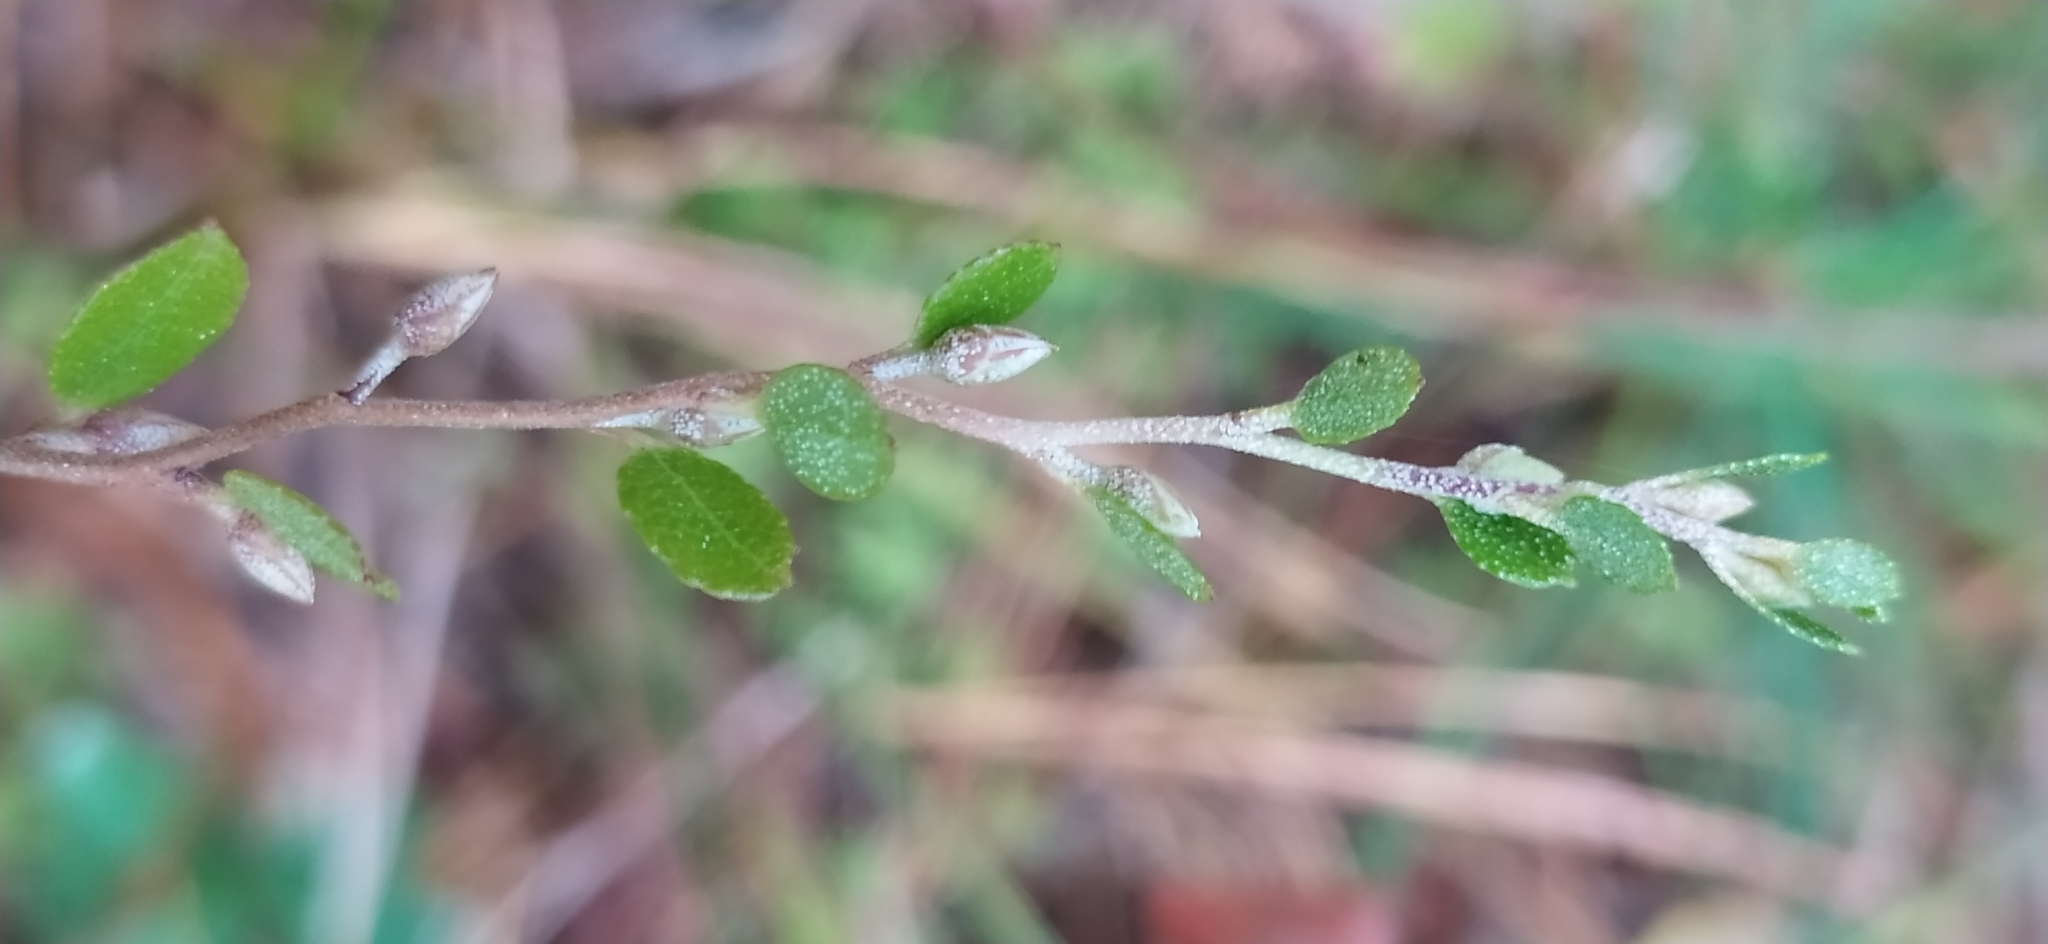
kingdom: Plantae
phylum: Tracheophyta
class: Magnoliopsida
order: Ericales
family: Ericaceae
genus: Chamaedaphne
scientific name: Chamaedaphne calyculata
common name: Leatherleaf
